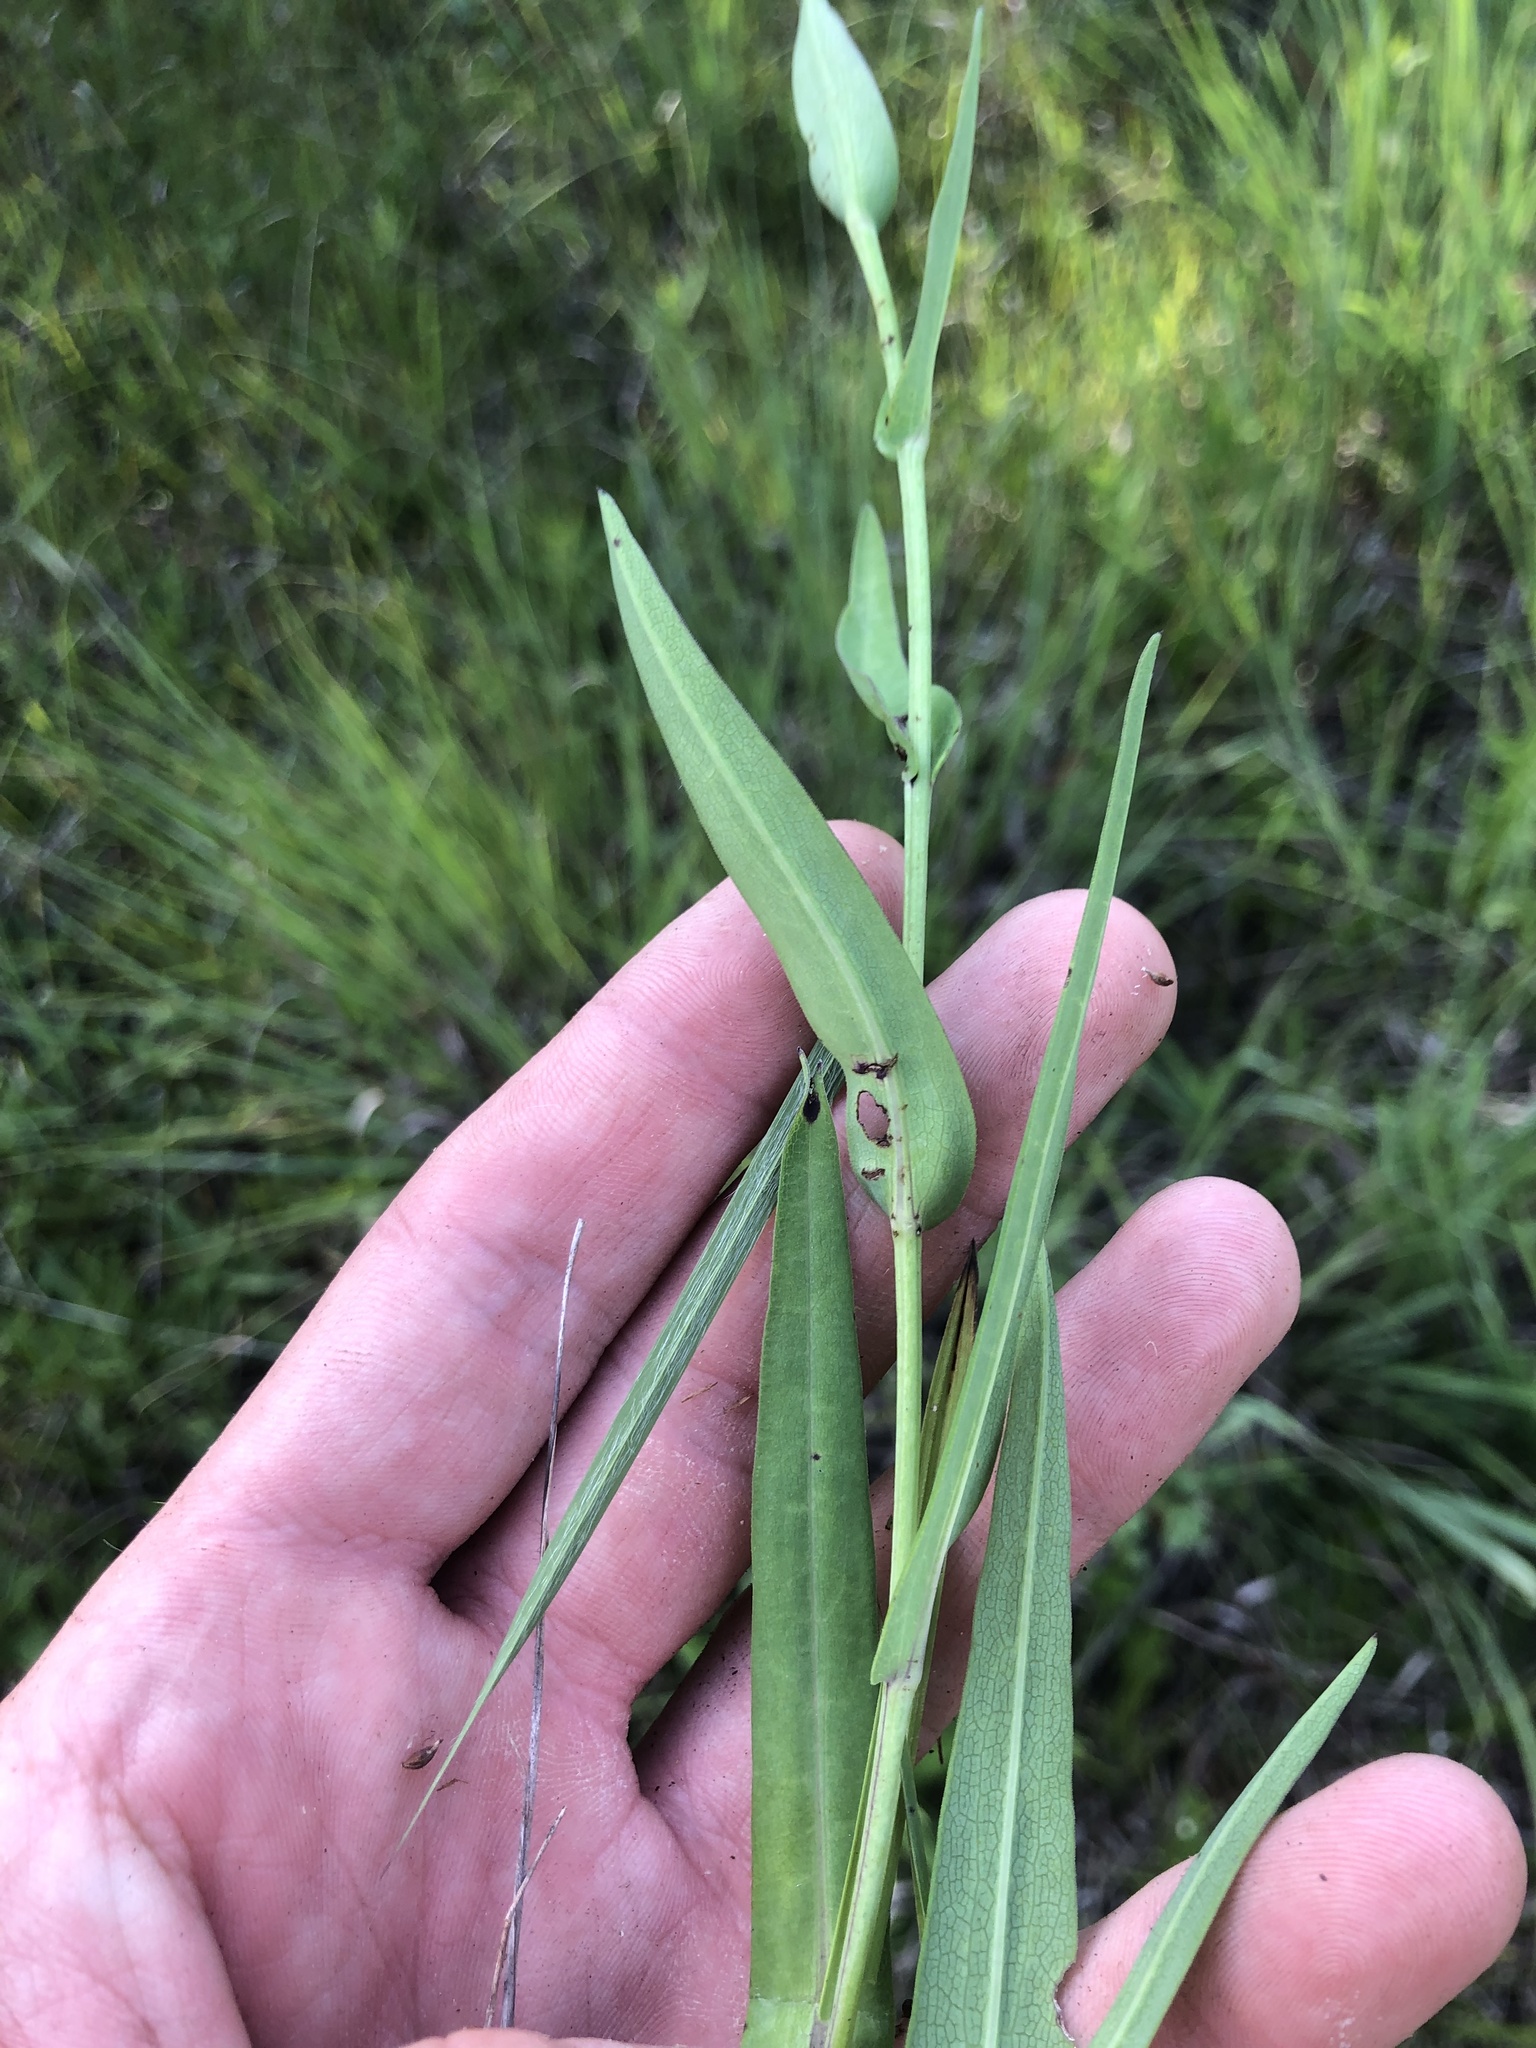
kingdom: Plantae
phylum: Tracheophyta
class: Magnoliopsida
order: Asterales
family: Asteraceae
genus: Symphyotrichum
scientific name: Symphyotrichum laeve
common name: Glaucous aster
